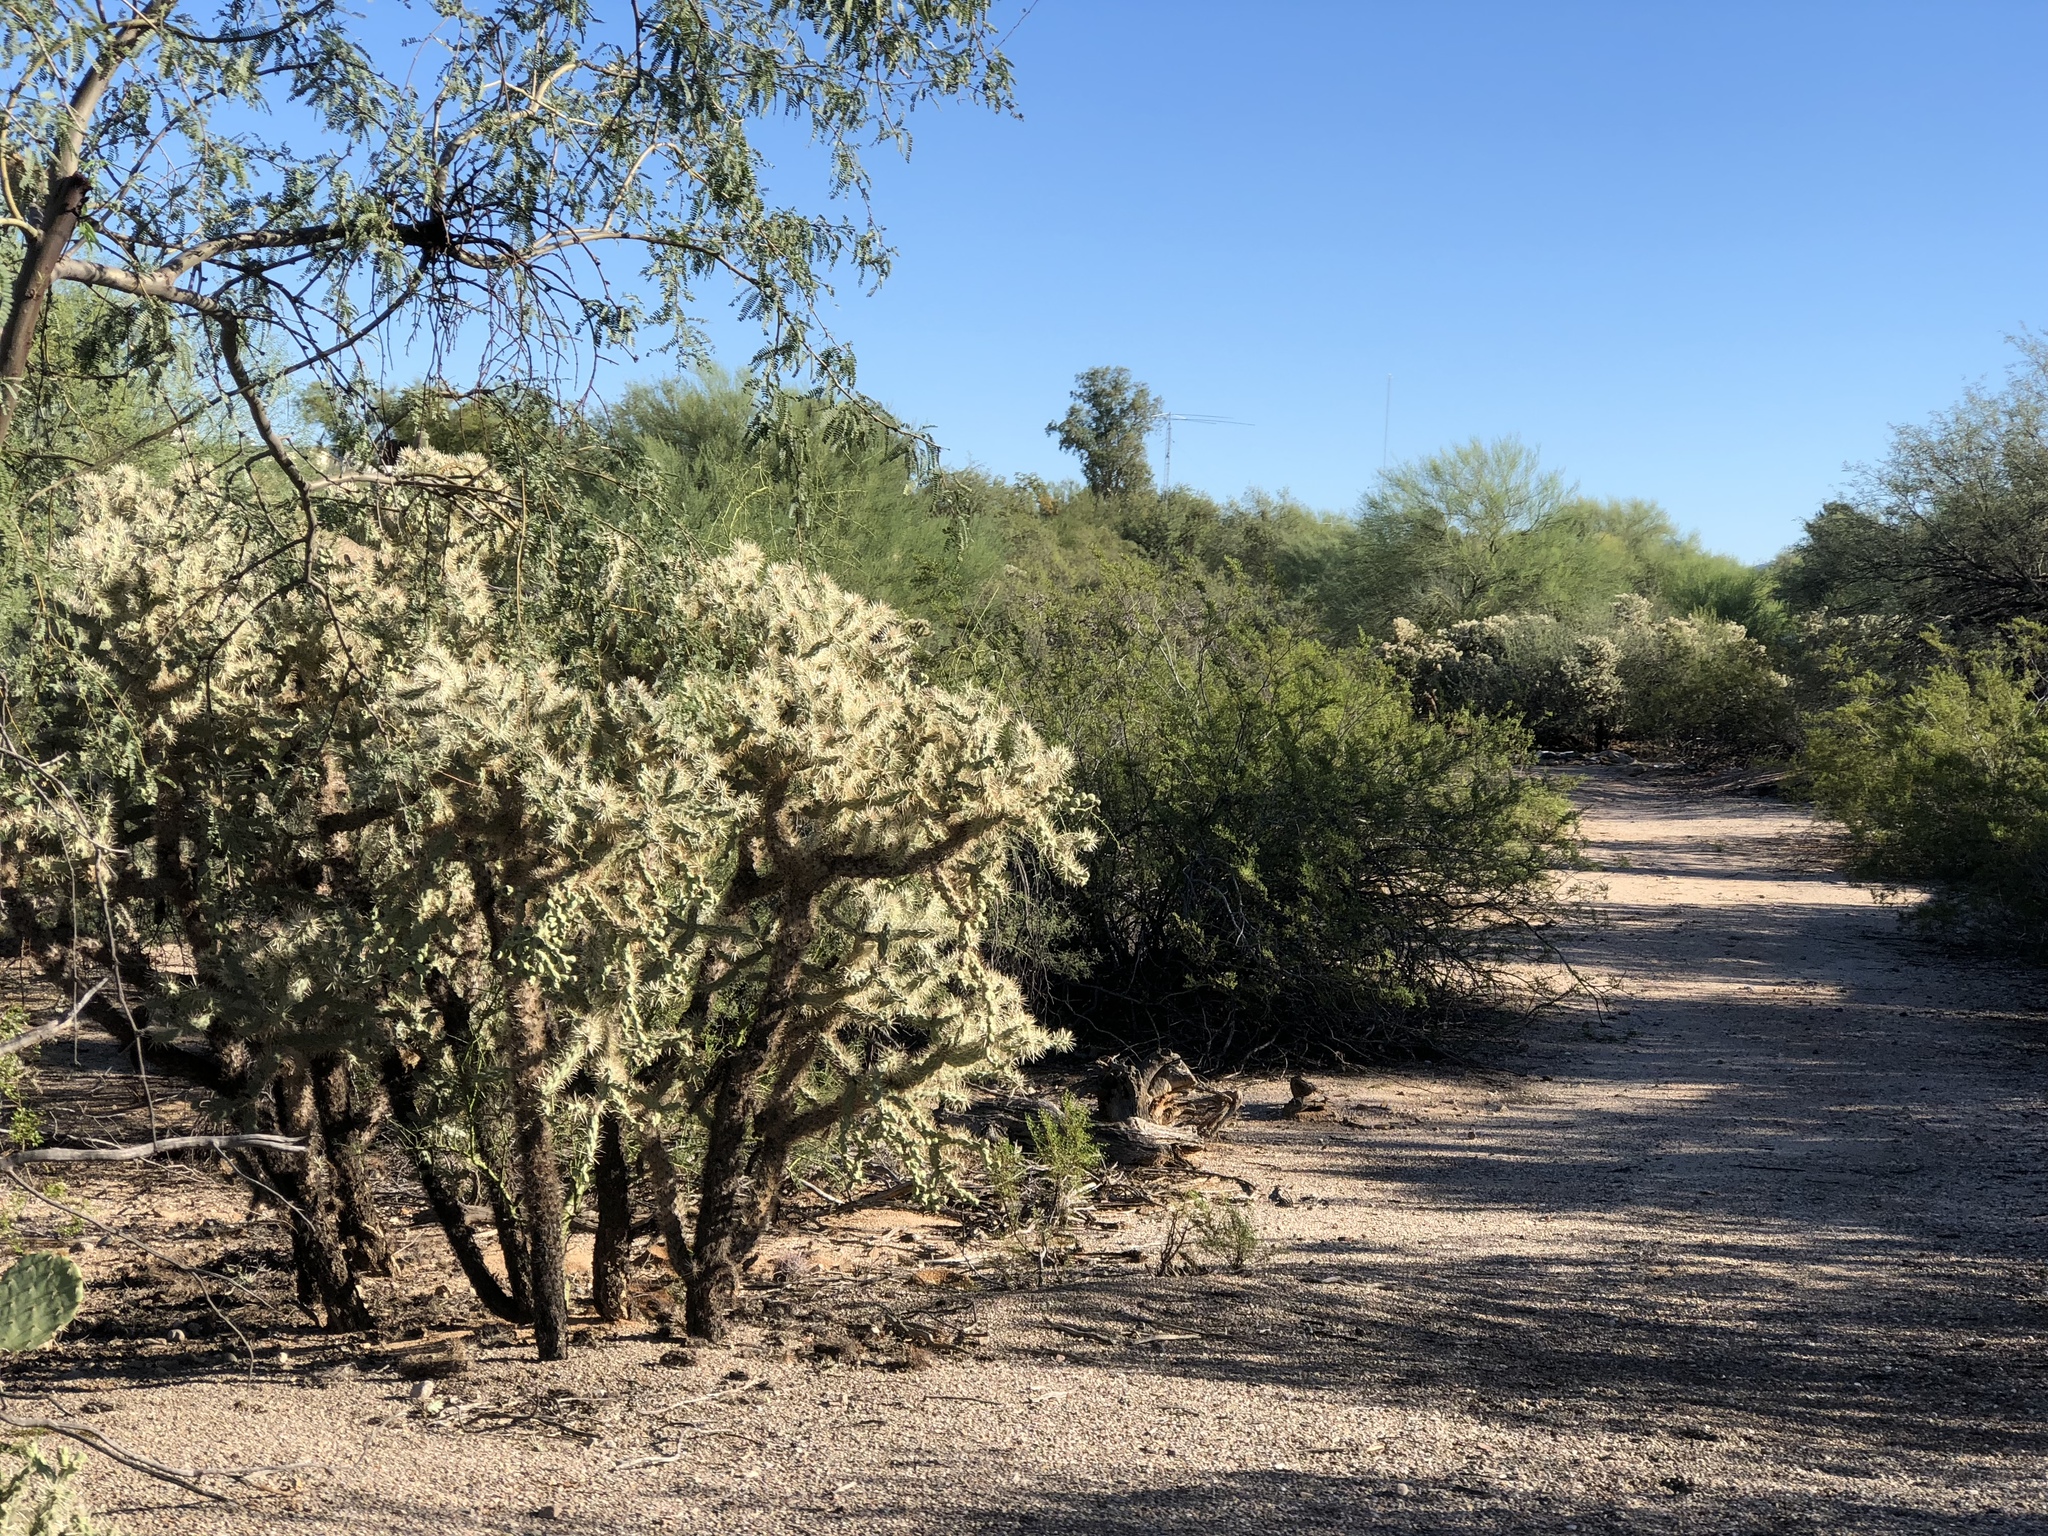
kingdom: Plantae
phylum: Tracheophyta
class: Magnoliopsida
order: Caryophyllales
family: Cactaceae
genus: Cylindropuntia
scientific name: Cylindropuntia fulgida
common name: Jumping cholla
